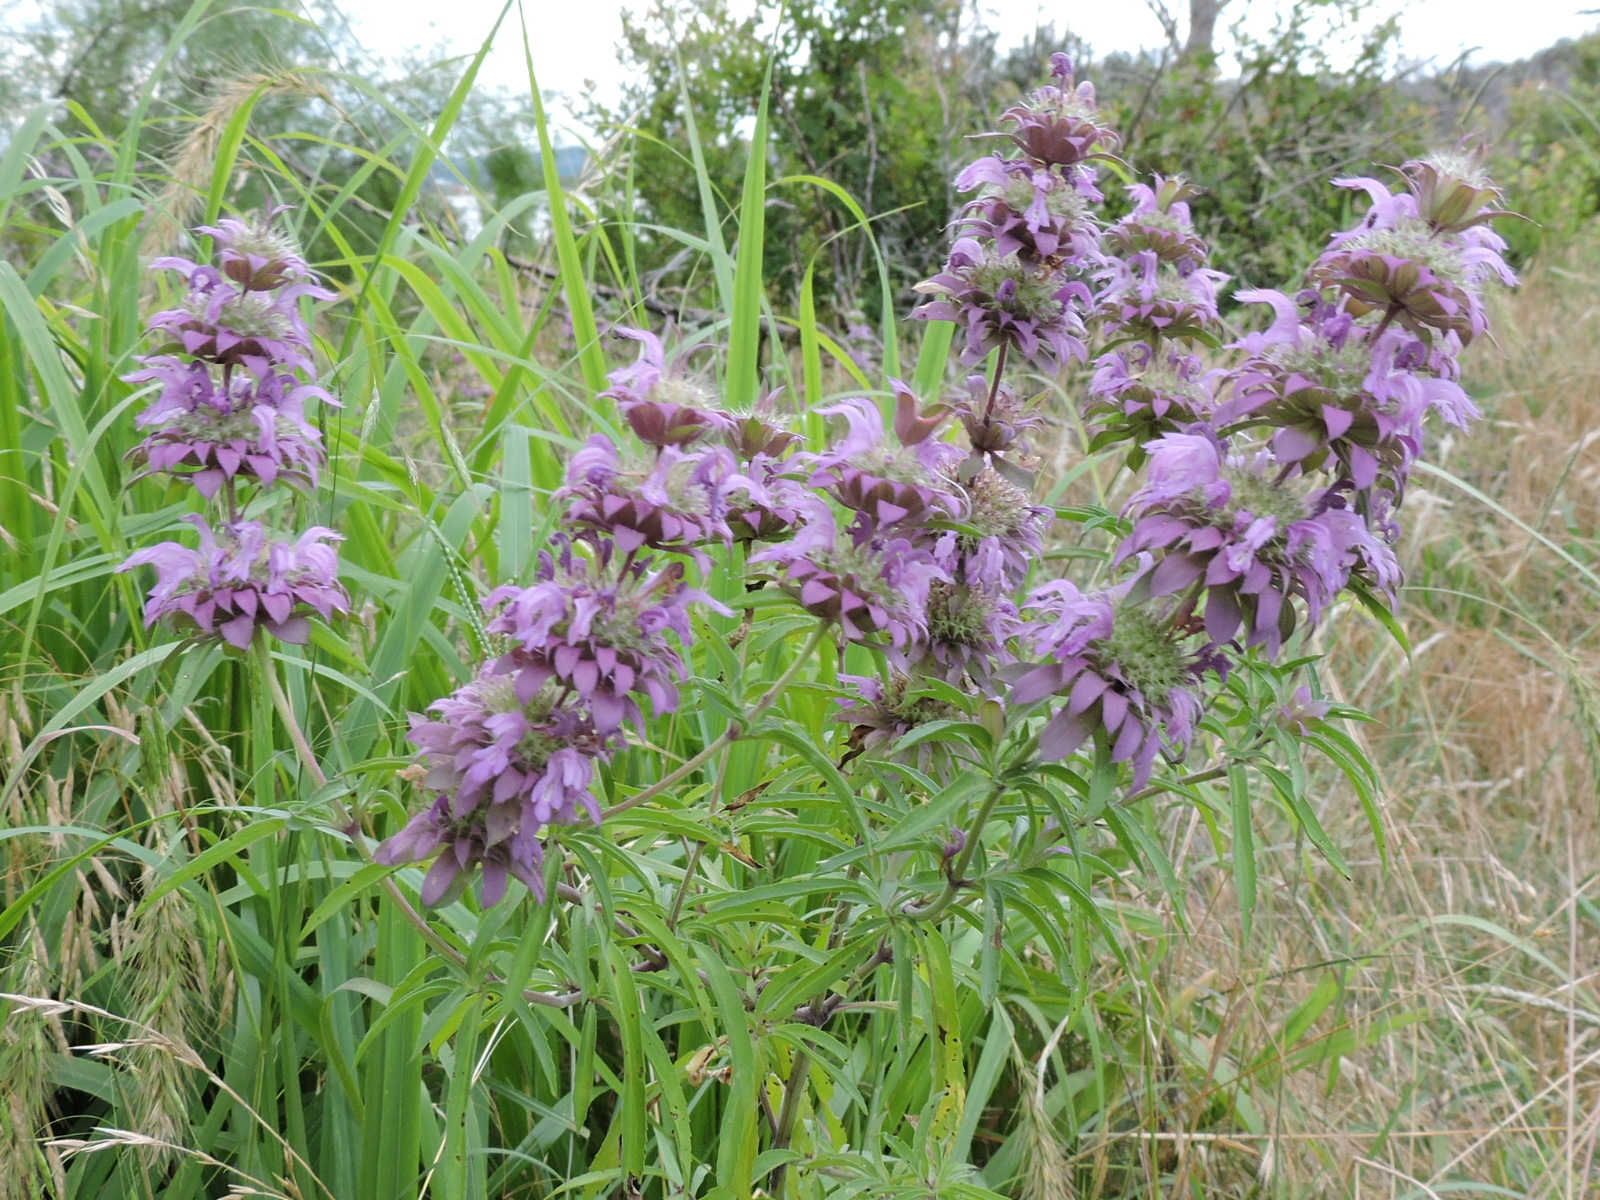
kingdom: Plantae
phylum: Tracheophyta
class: Magnoliopsida
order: Lamiales
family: Lamiaceae
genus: Monarda
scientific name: Monarda citriodora
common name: Lemon beebalm
